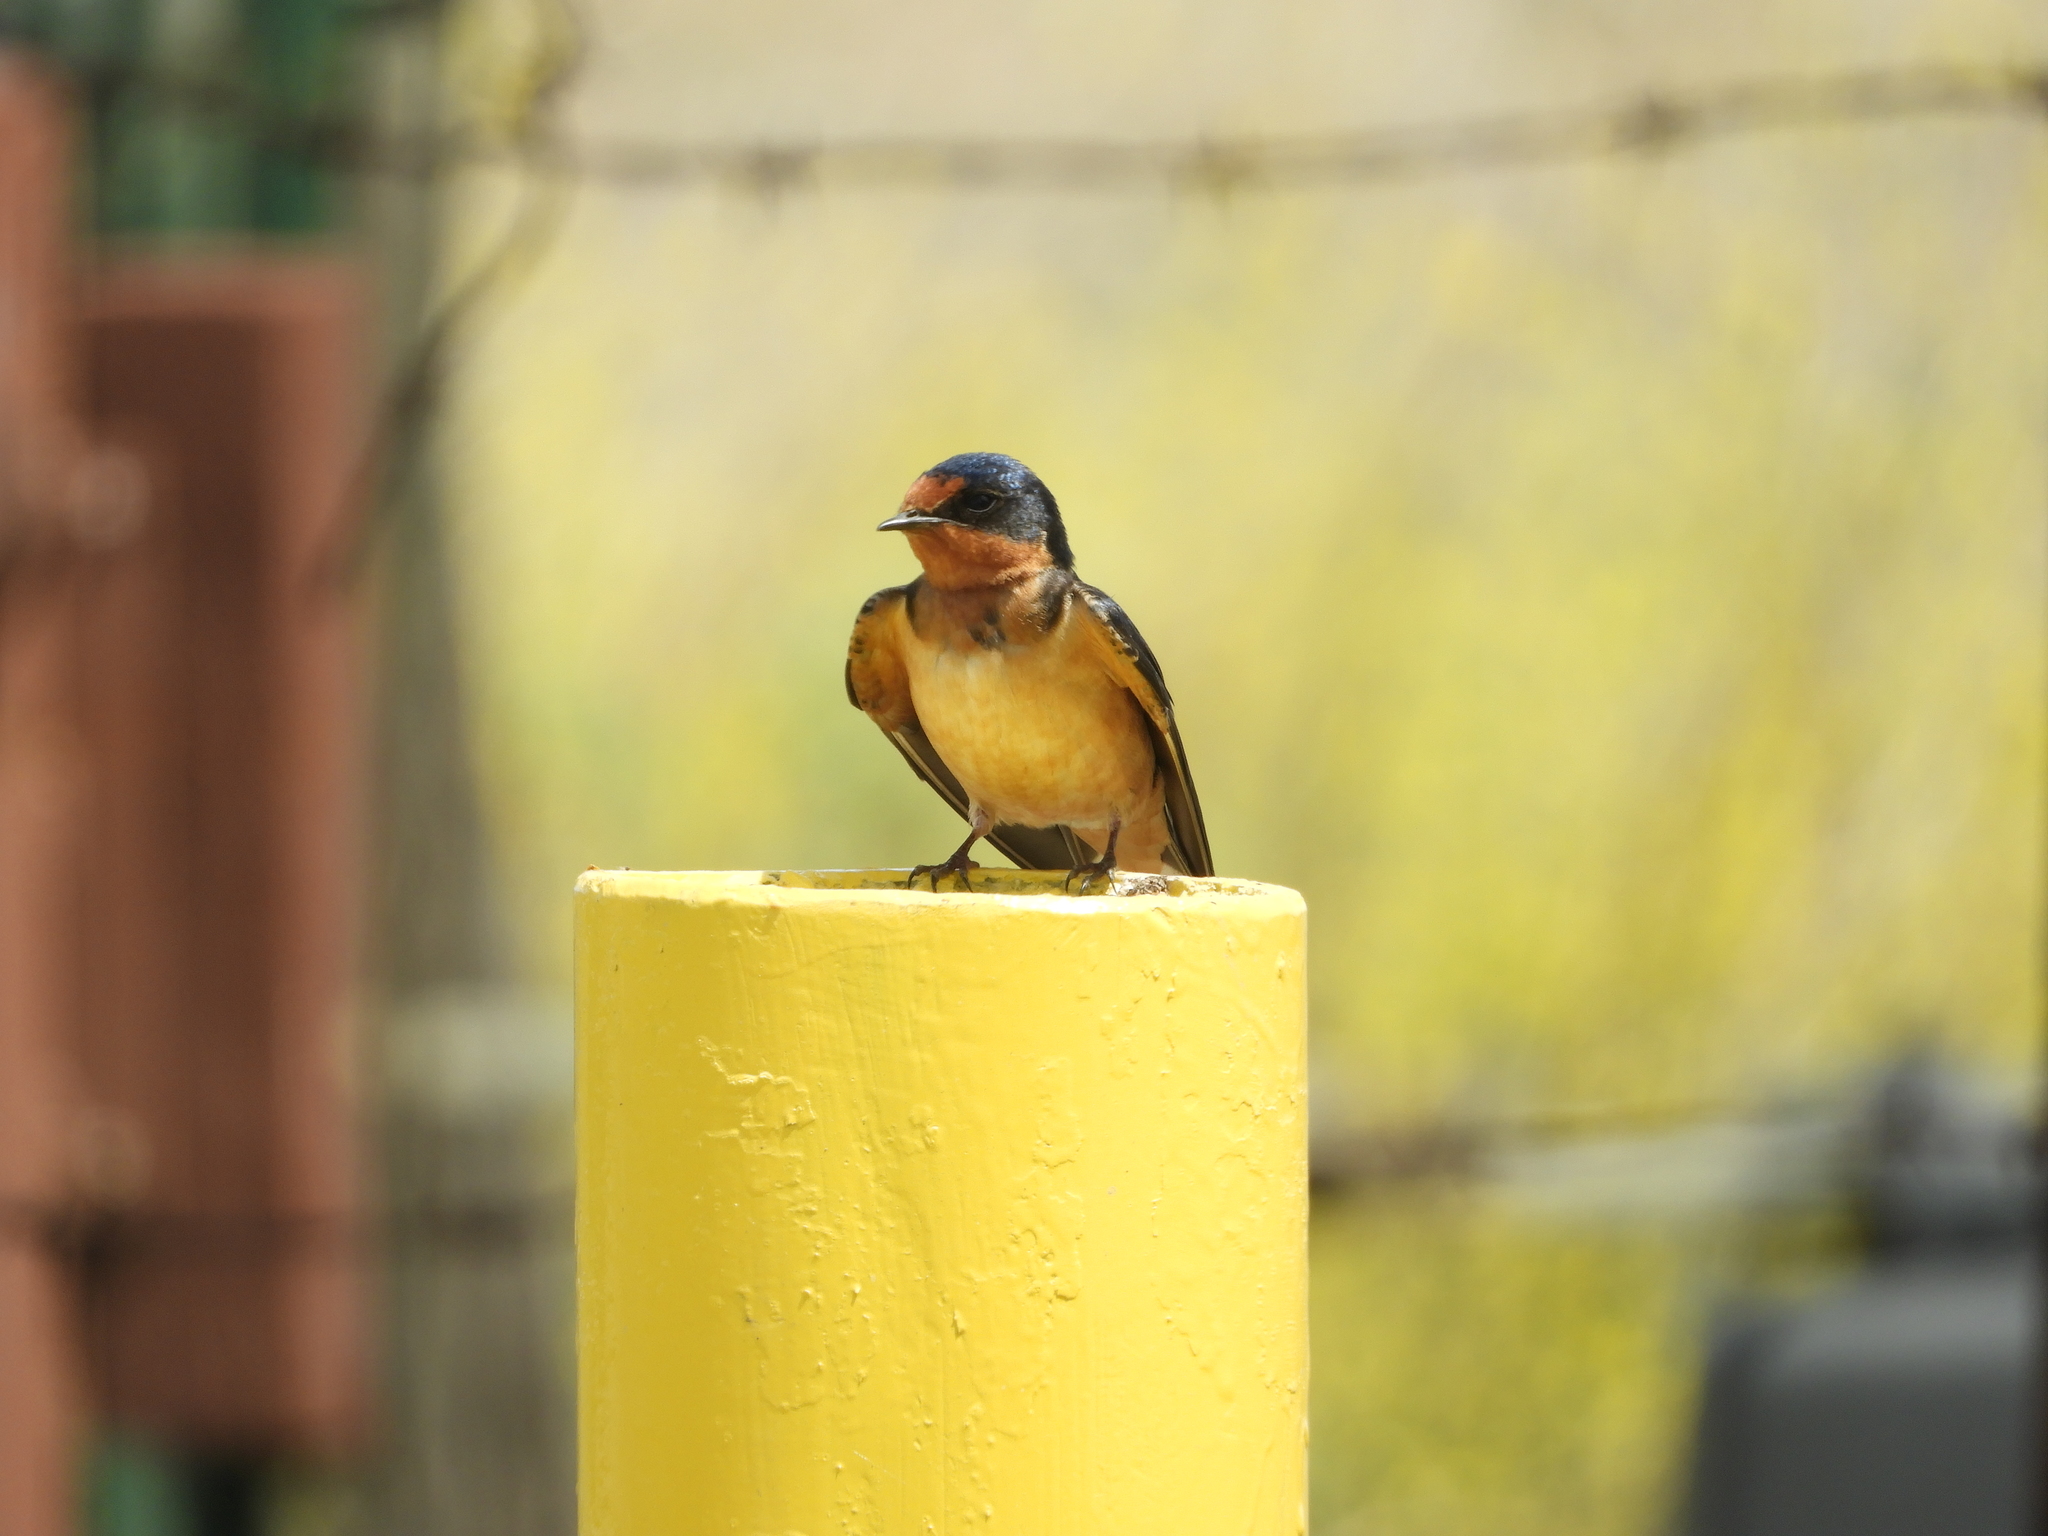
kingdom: Animalia
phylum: Chordata
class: Aves
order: Passeriformes
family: Hirundinidae
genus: Hirundo
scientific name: Hirundo rustica
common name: Barn swallow
